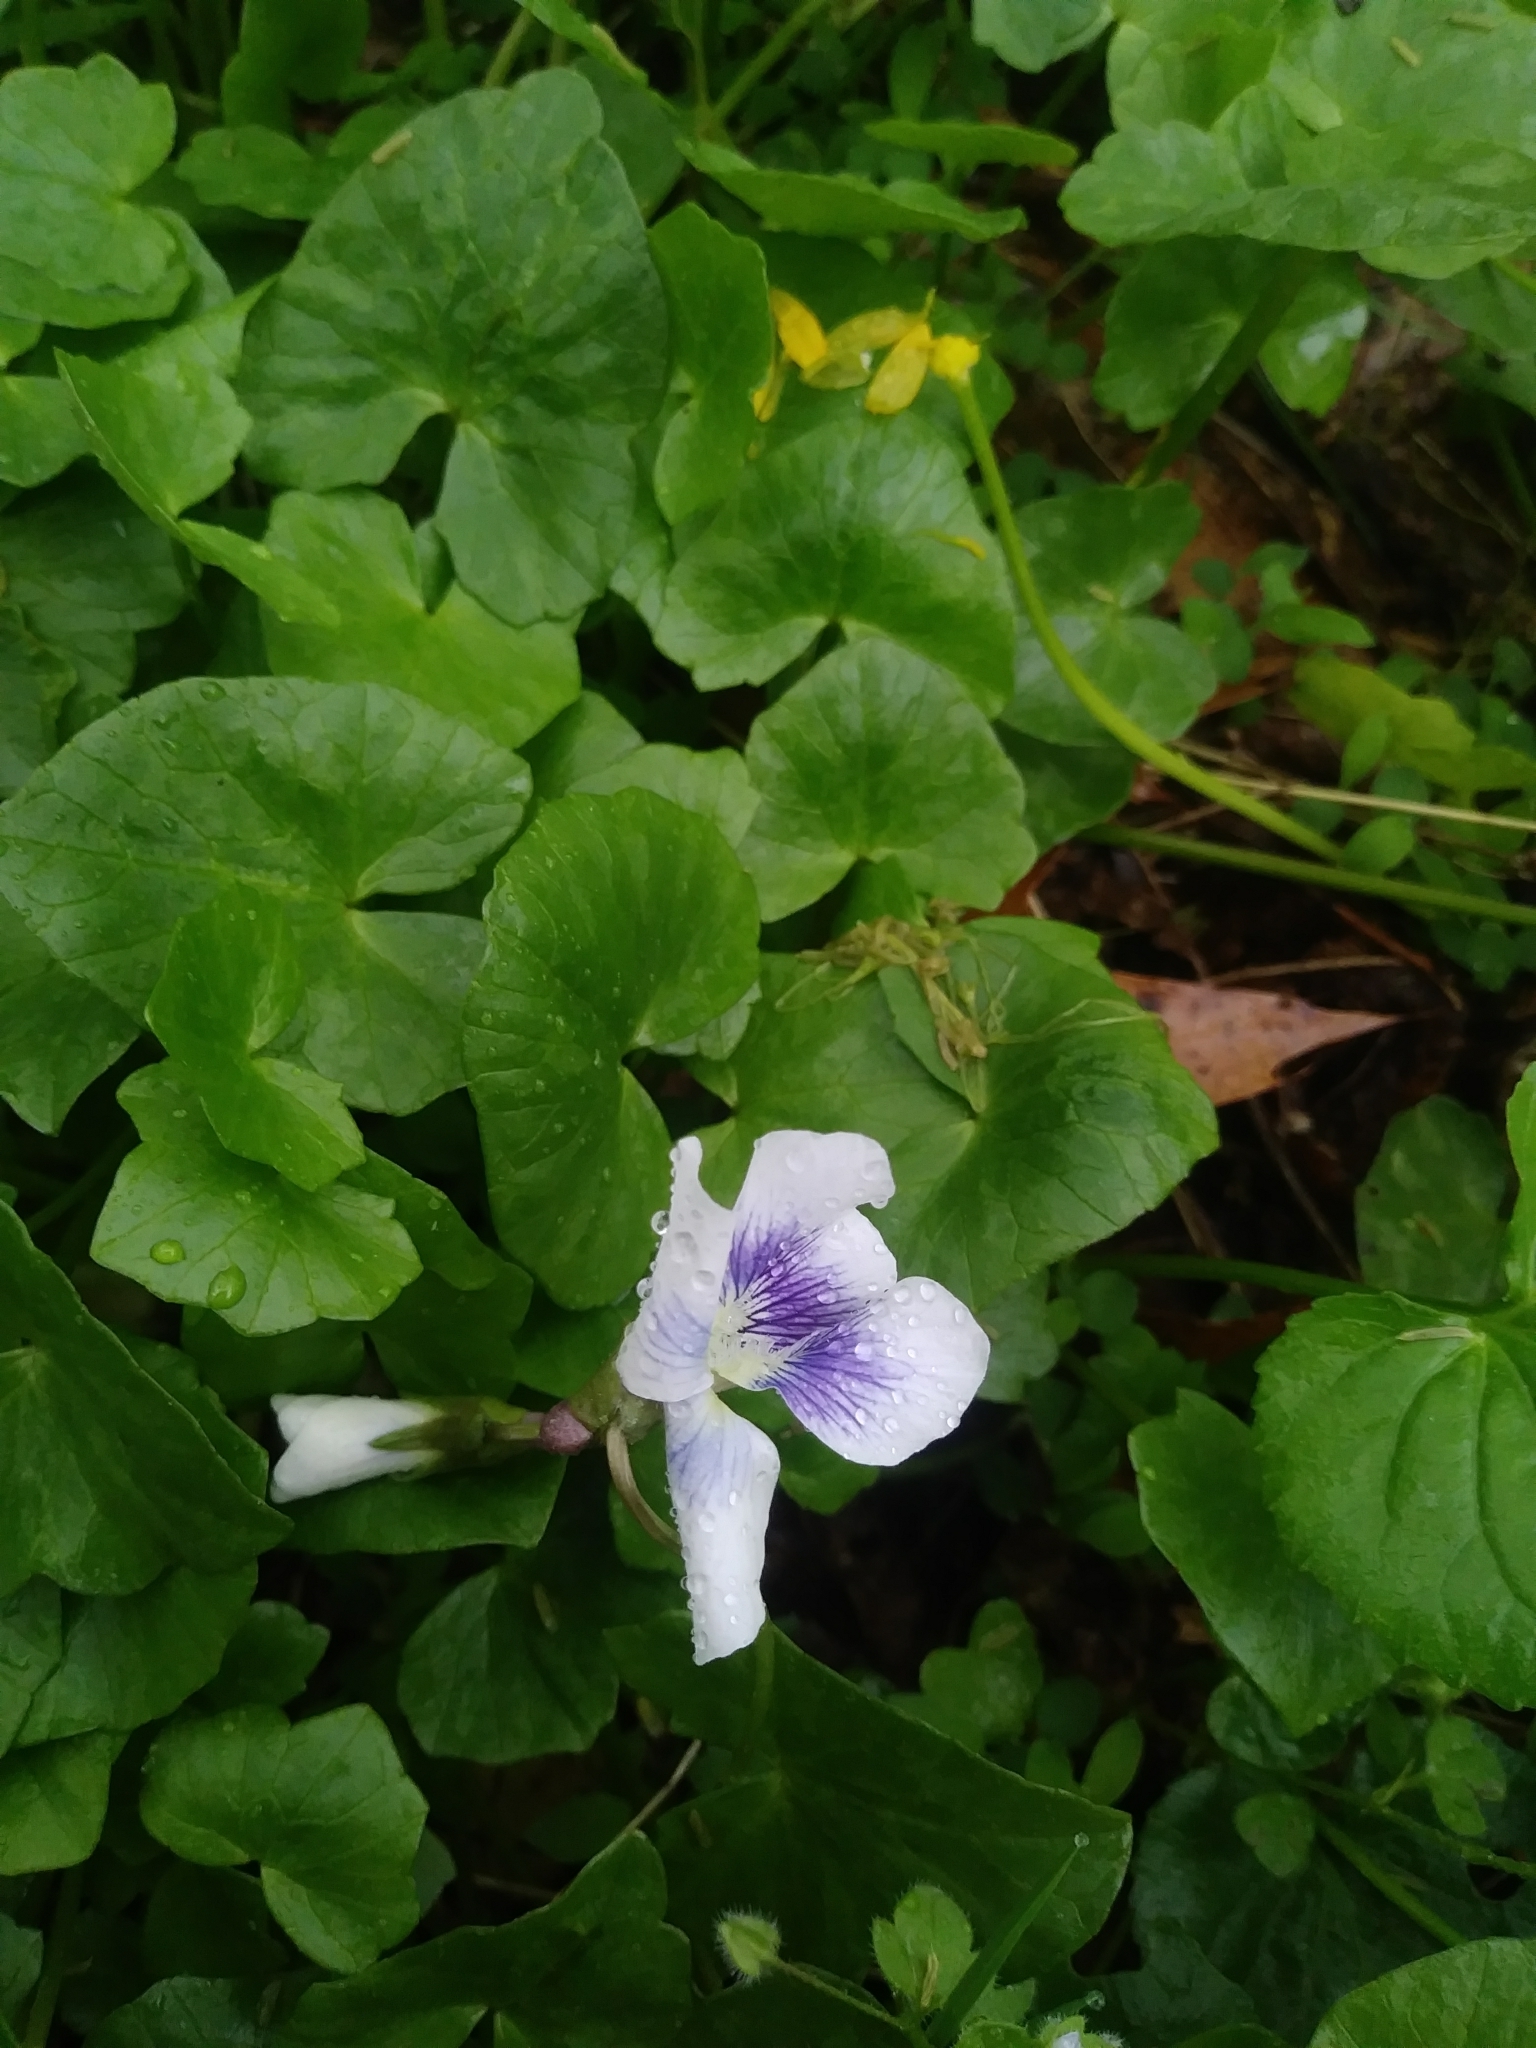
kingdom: Plantae
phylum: Tracheophyta
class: Magnoliopsida
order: Malpighiales
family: Violaceae
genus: Viola
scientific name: Viola sororia
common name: Dooryard violet
